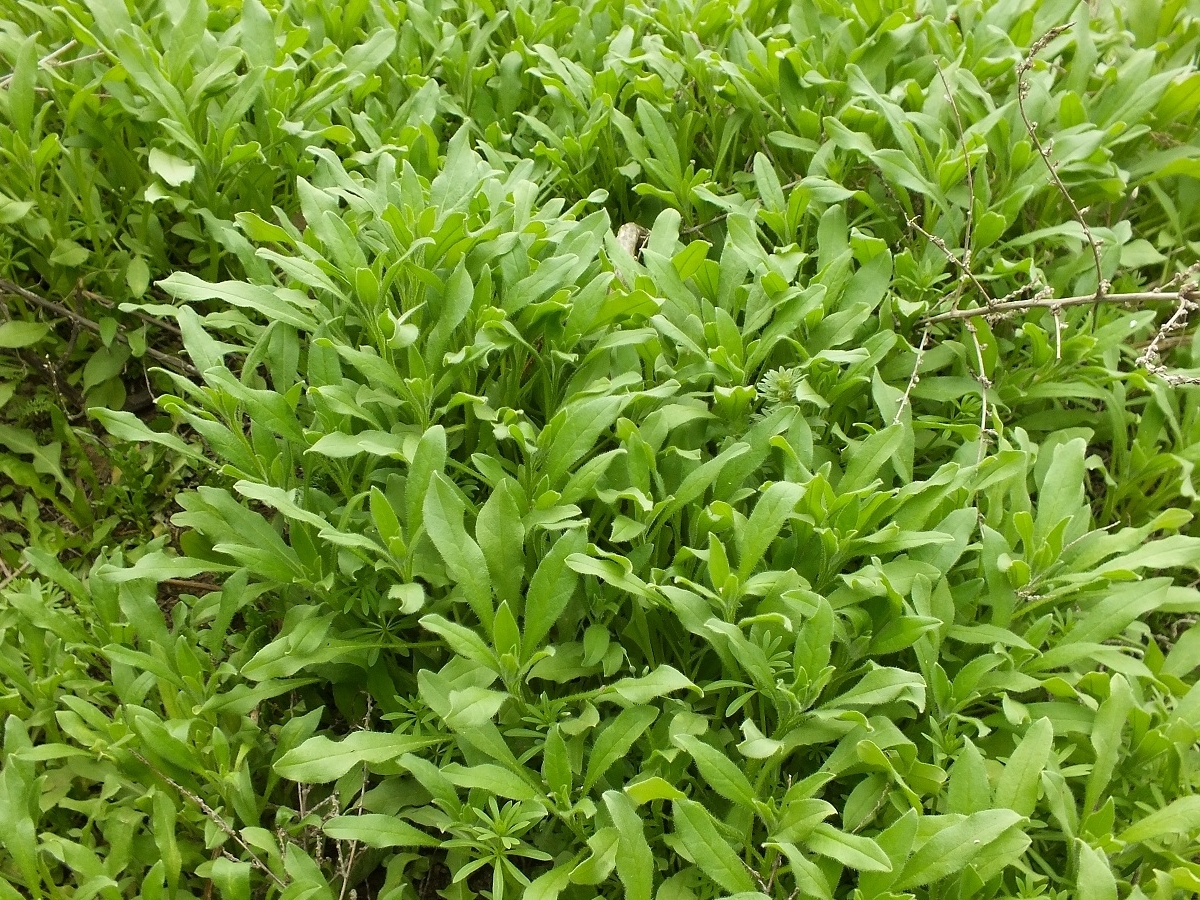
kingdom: Plantae
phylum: Tracheophyta
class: Magnoliopsida
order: Boraginales
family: Boraginaceae
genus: Asperugo
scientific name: Asperugo procumbens
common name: Madwort
